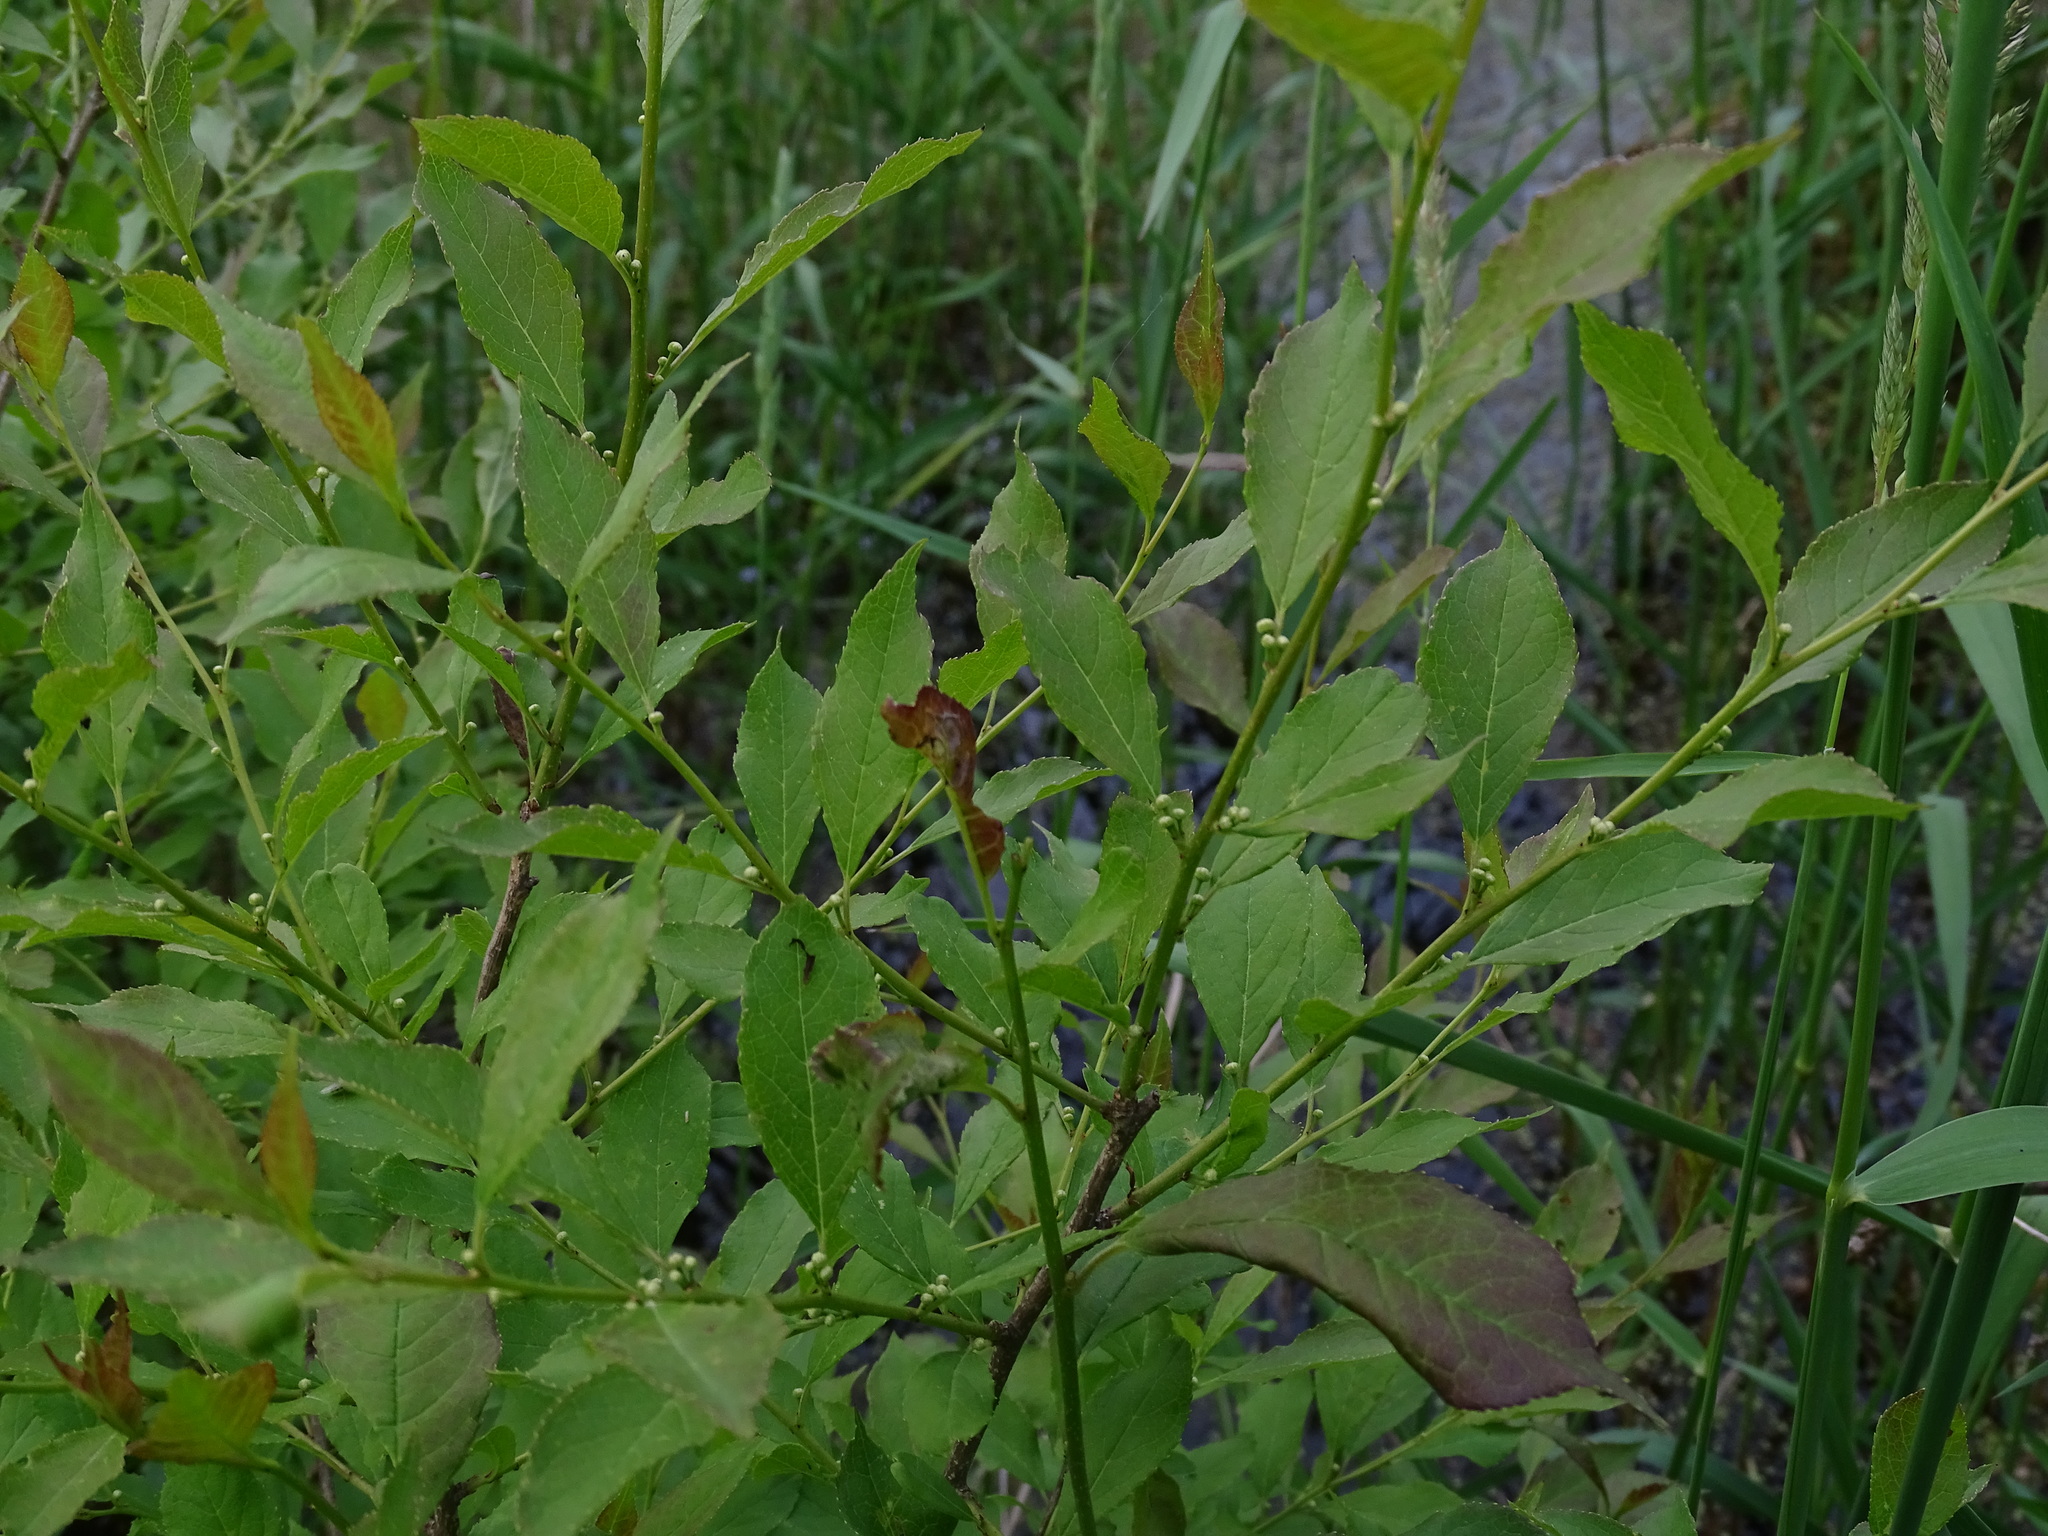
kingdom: Plantae
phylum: Tracheophyta
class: Magnoliopsida
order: Aquifoliales
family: Aquifoliaceae
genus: Ilex
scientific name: Ilex verticillata
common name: Virginia winterberry
